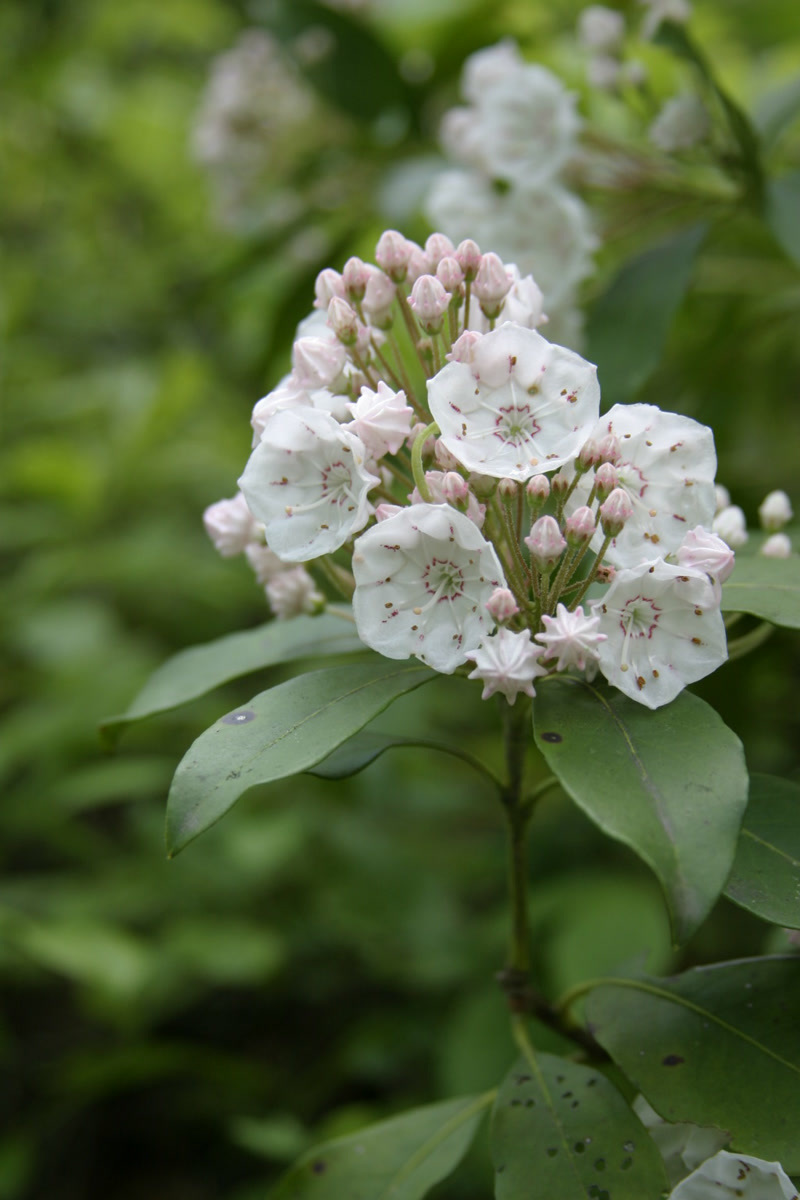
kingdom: Plantae
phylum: Tracheophyta
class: Magnoliopsida
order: Ericales
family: Ericaceae
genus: Kalmia
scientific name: Kalmia latifolia
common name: Mountain-laurel
